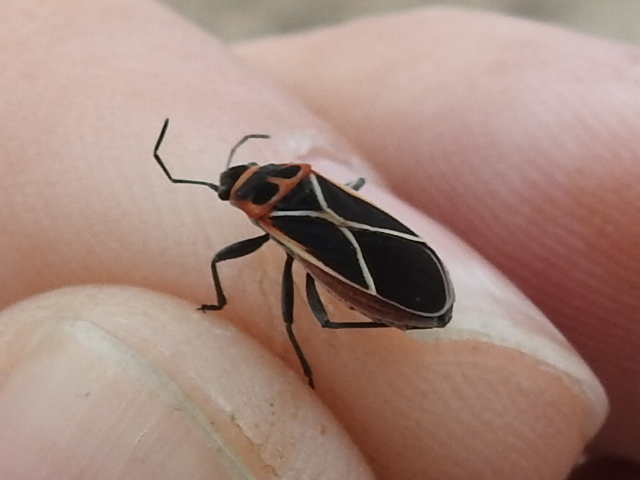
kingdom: Animalia
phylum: Arthropoda
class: Insecta
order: Hemiptera
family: Lygaeidae
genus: Ochrostomus
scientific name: Ochrostomus uhleri
